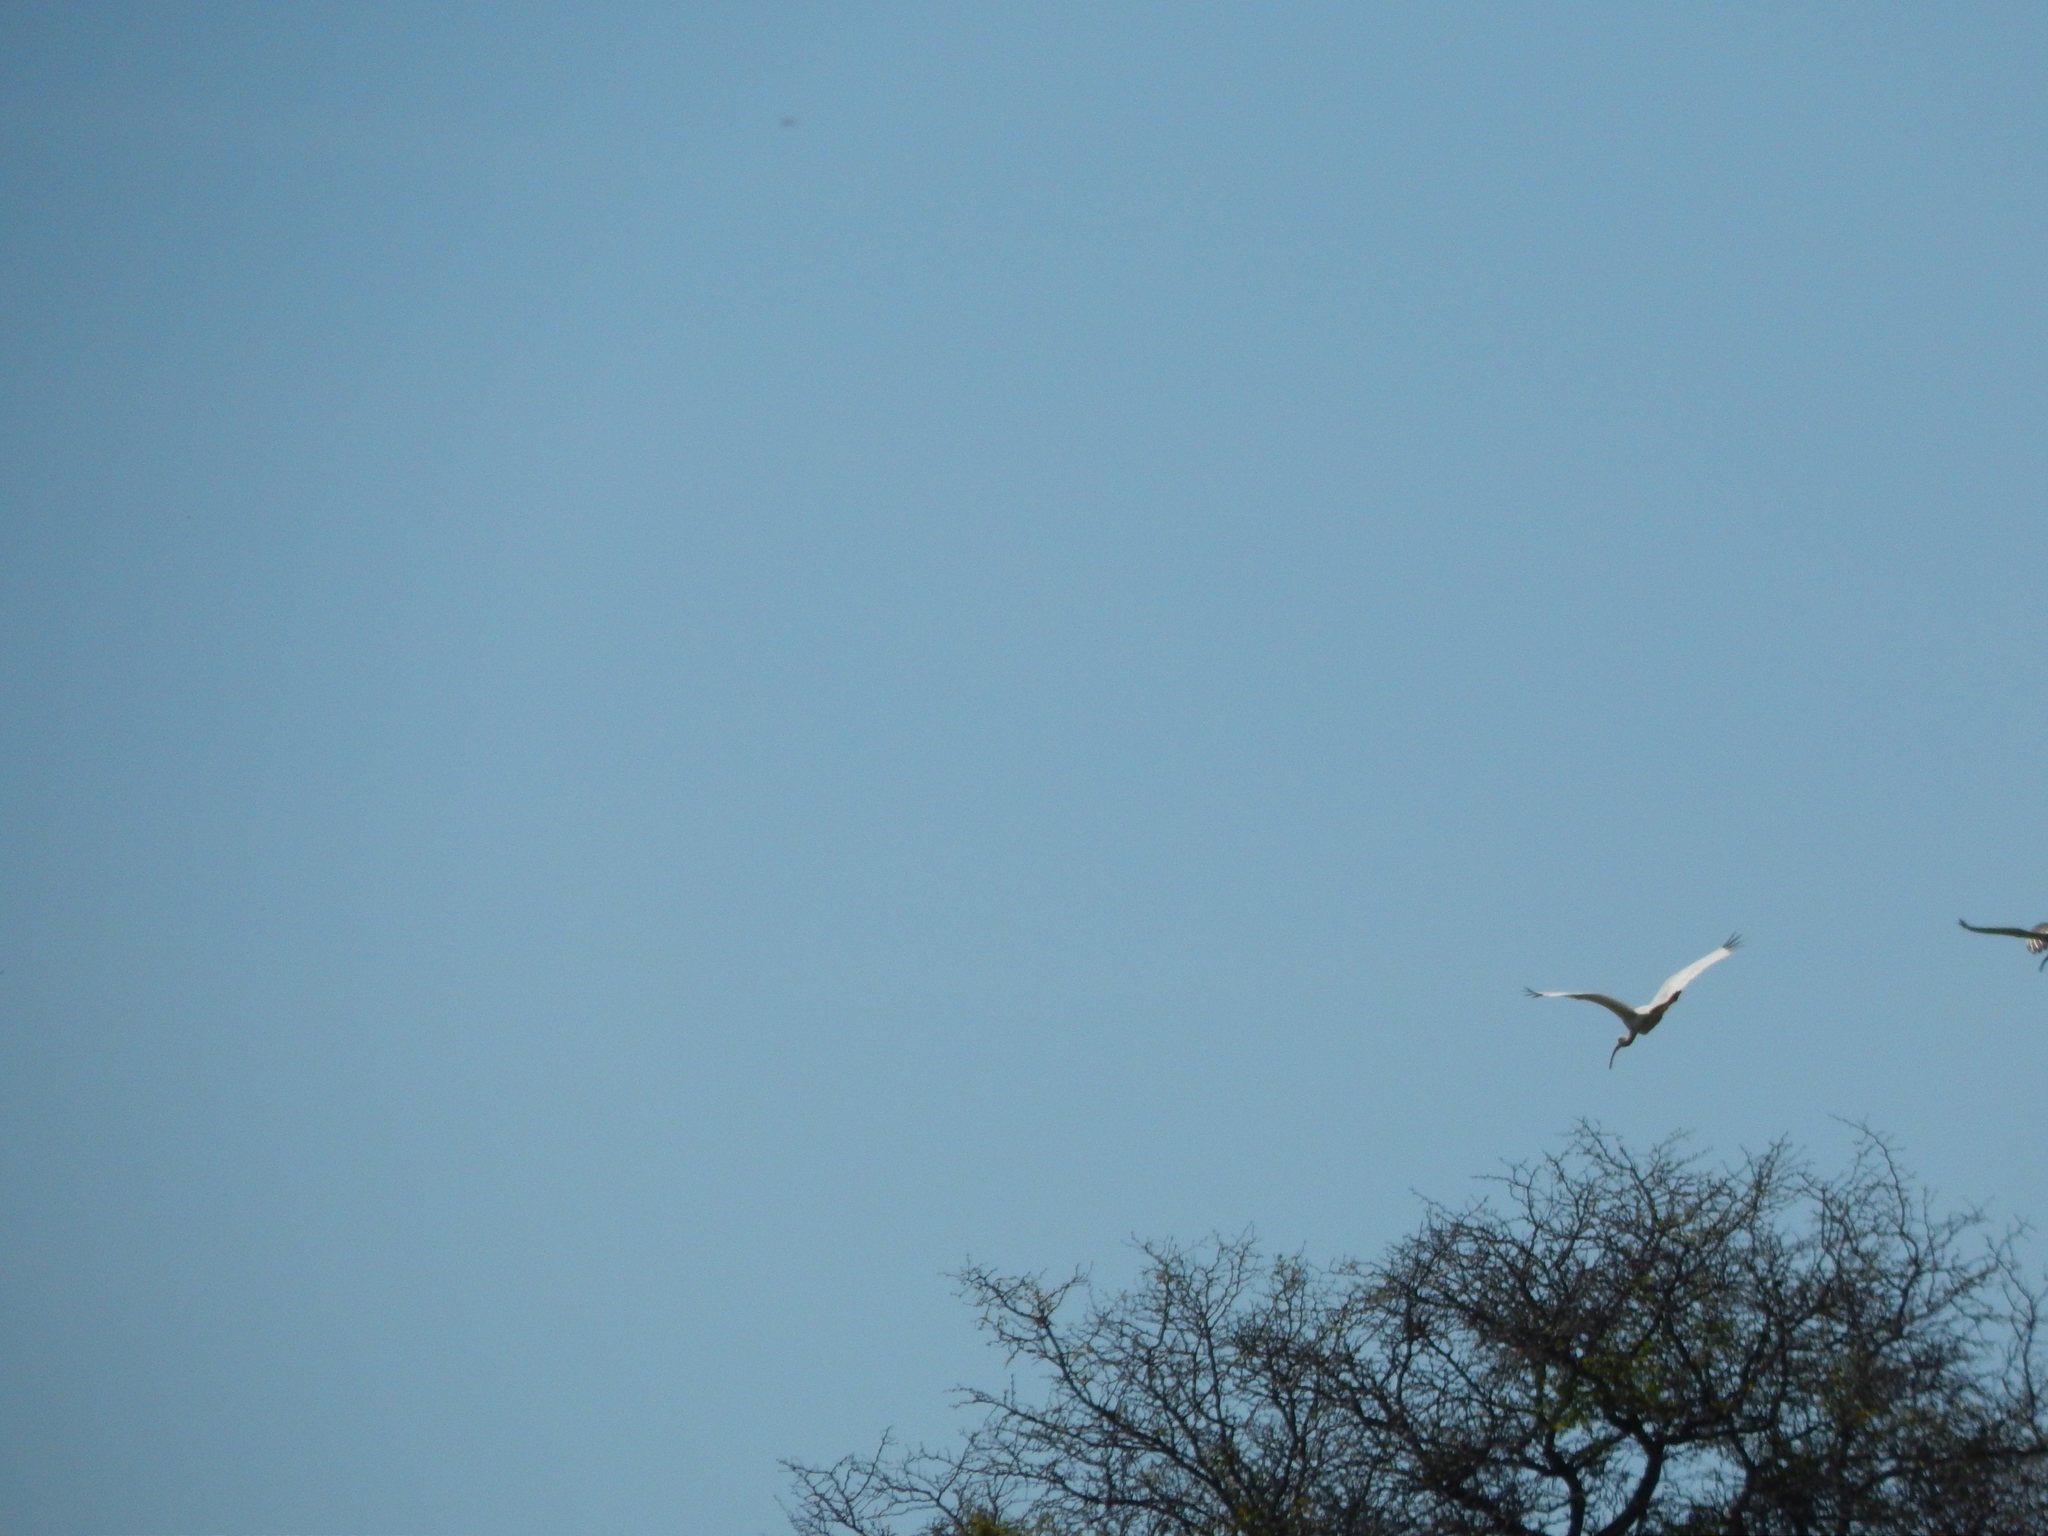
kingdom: Animalia
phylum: Chordata
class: Aves
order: Pelecaniformes
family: Threskiornithidae
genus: Eudocimus
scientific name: Eudocimus albus
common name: White ibis
